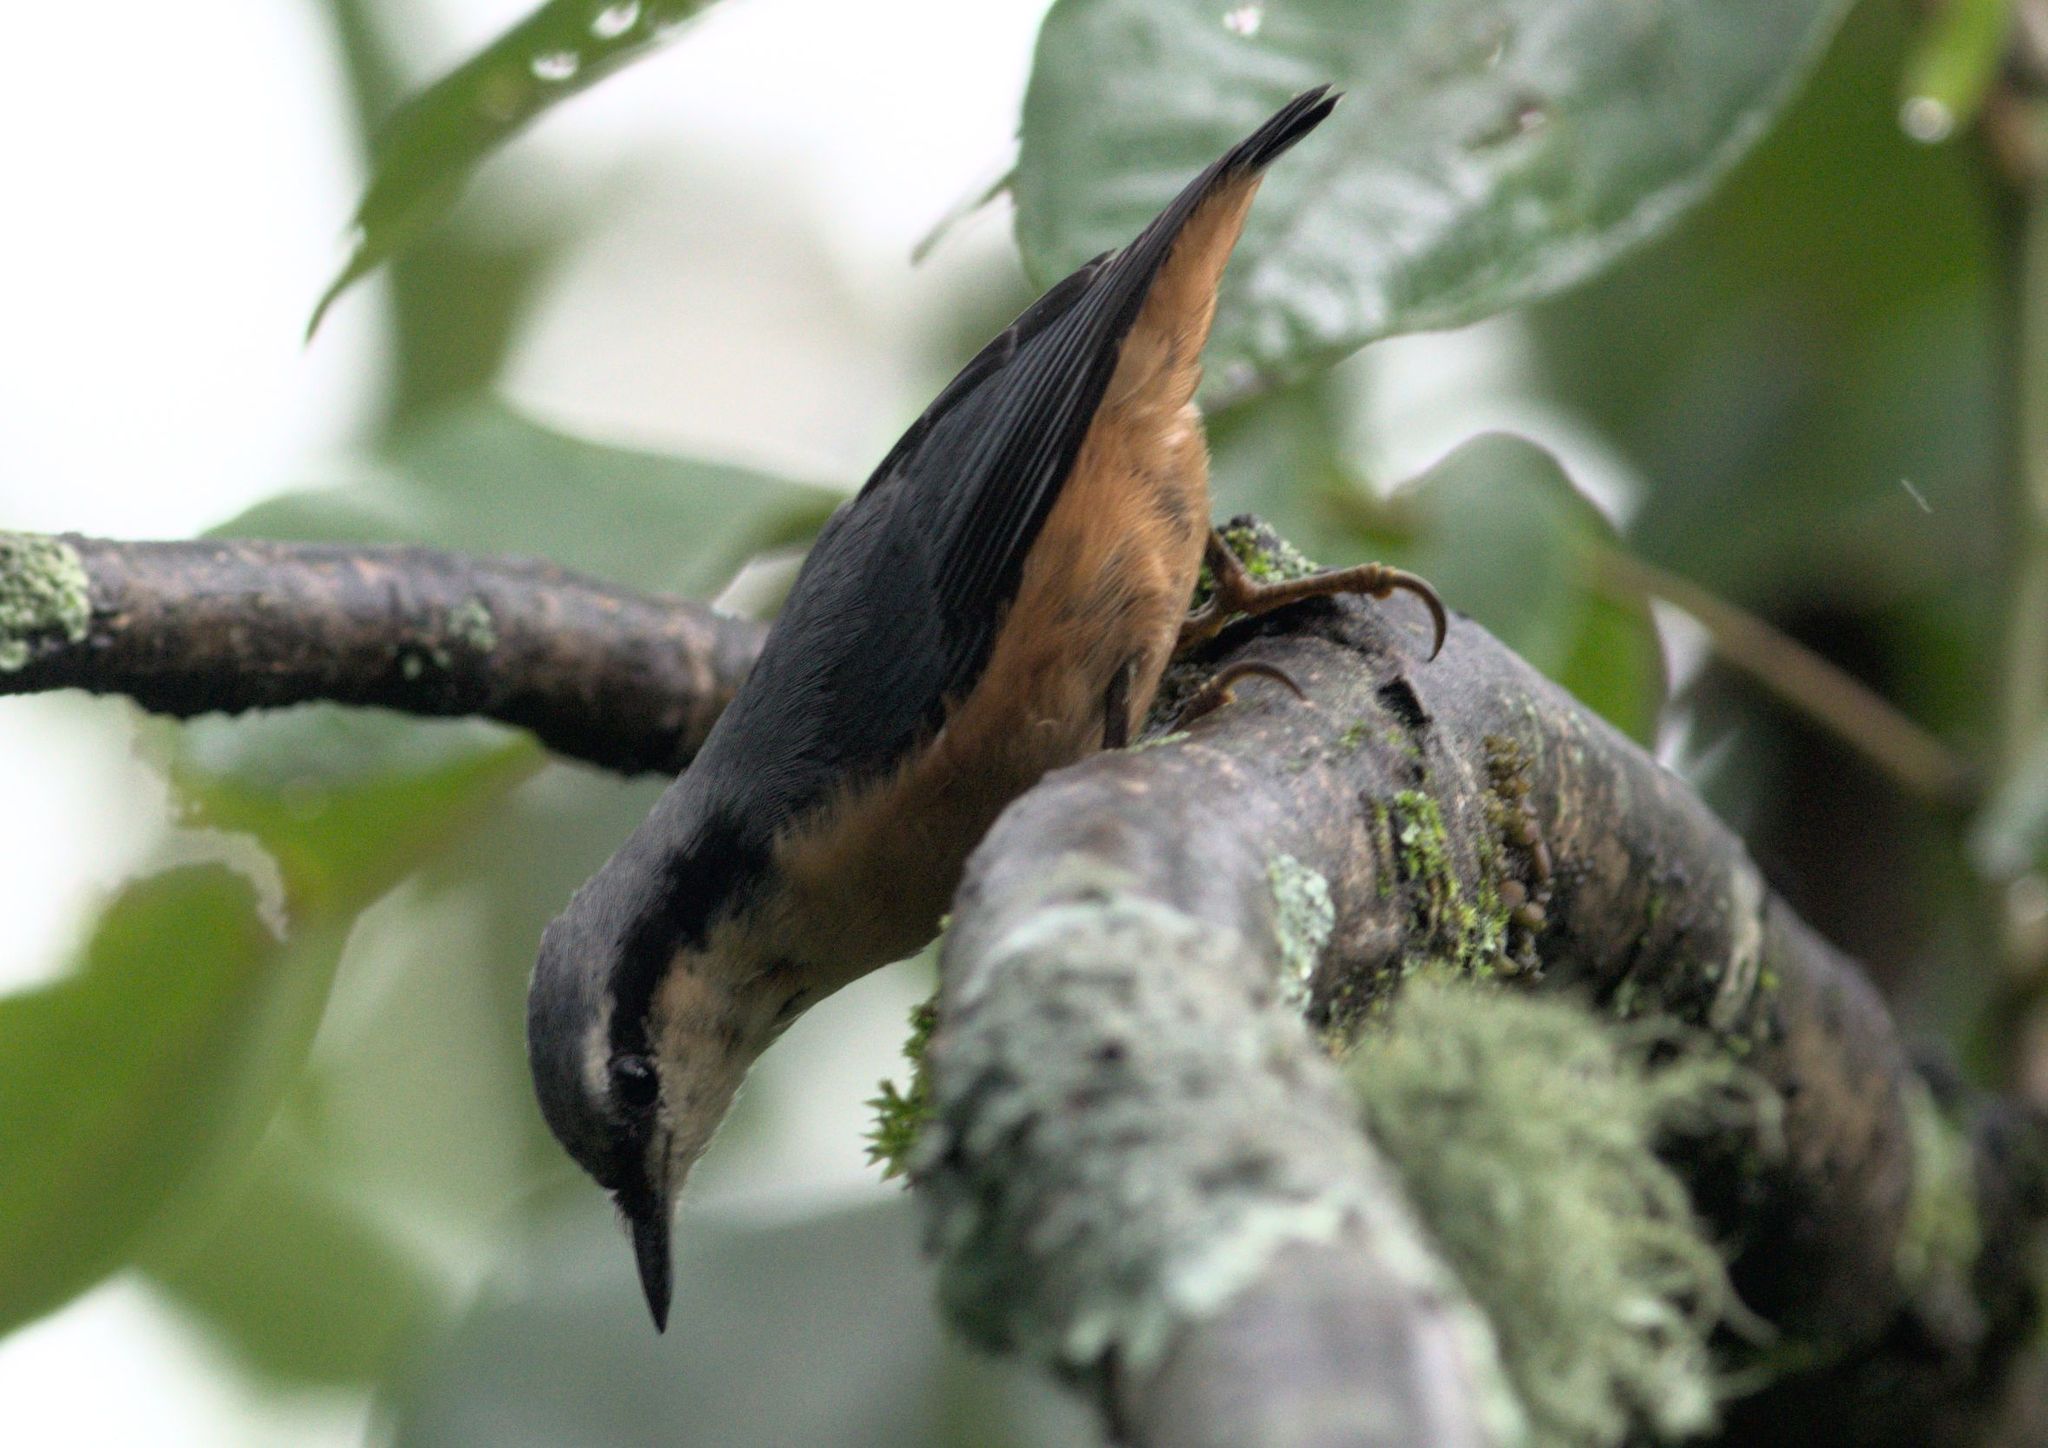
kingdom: Animalia
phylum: Chordata
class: Aves
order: Passeriformes
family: Sittidae
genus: Sitta
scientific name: Sitta himalayensis
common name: White-tailed nuthatch
